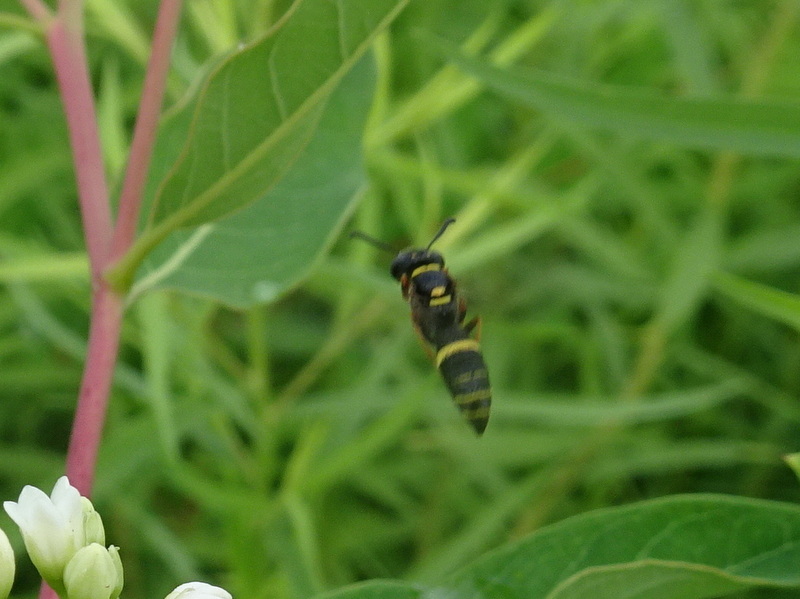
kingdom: Animalia
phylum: Arthropoda
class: Insecta
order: Hymenoptera
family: Crabronidae
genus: Philanthus
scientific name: Philanthus gibbosus
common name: Humped beewolf
